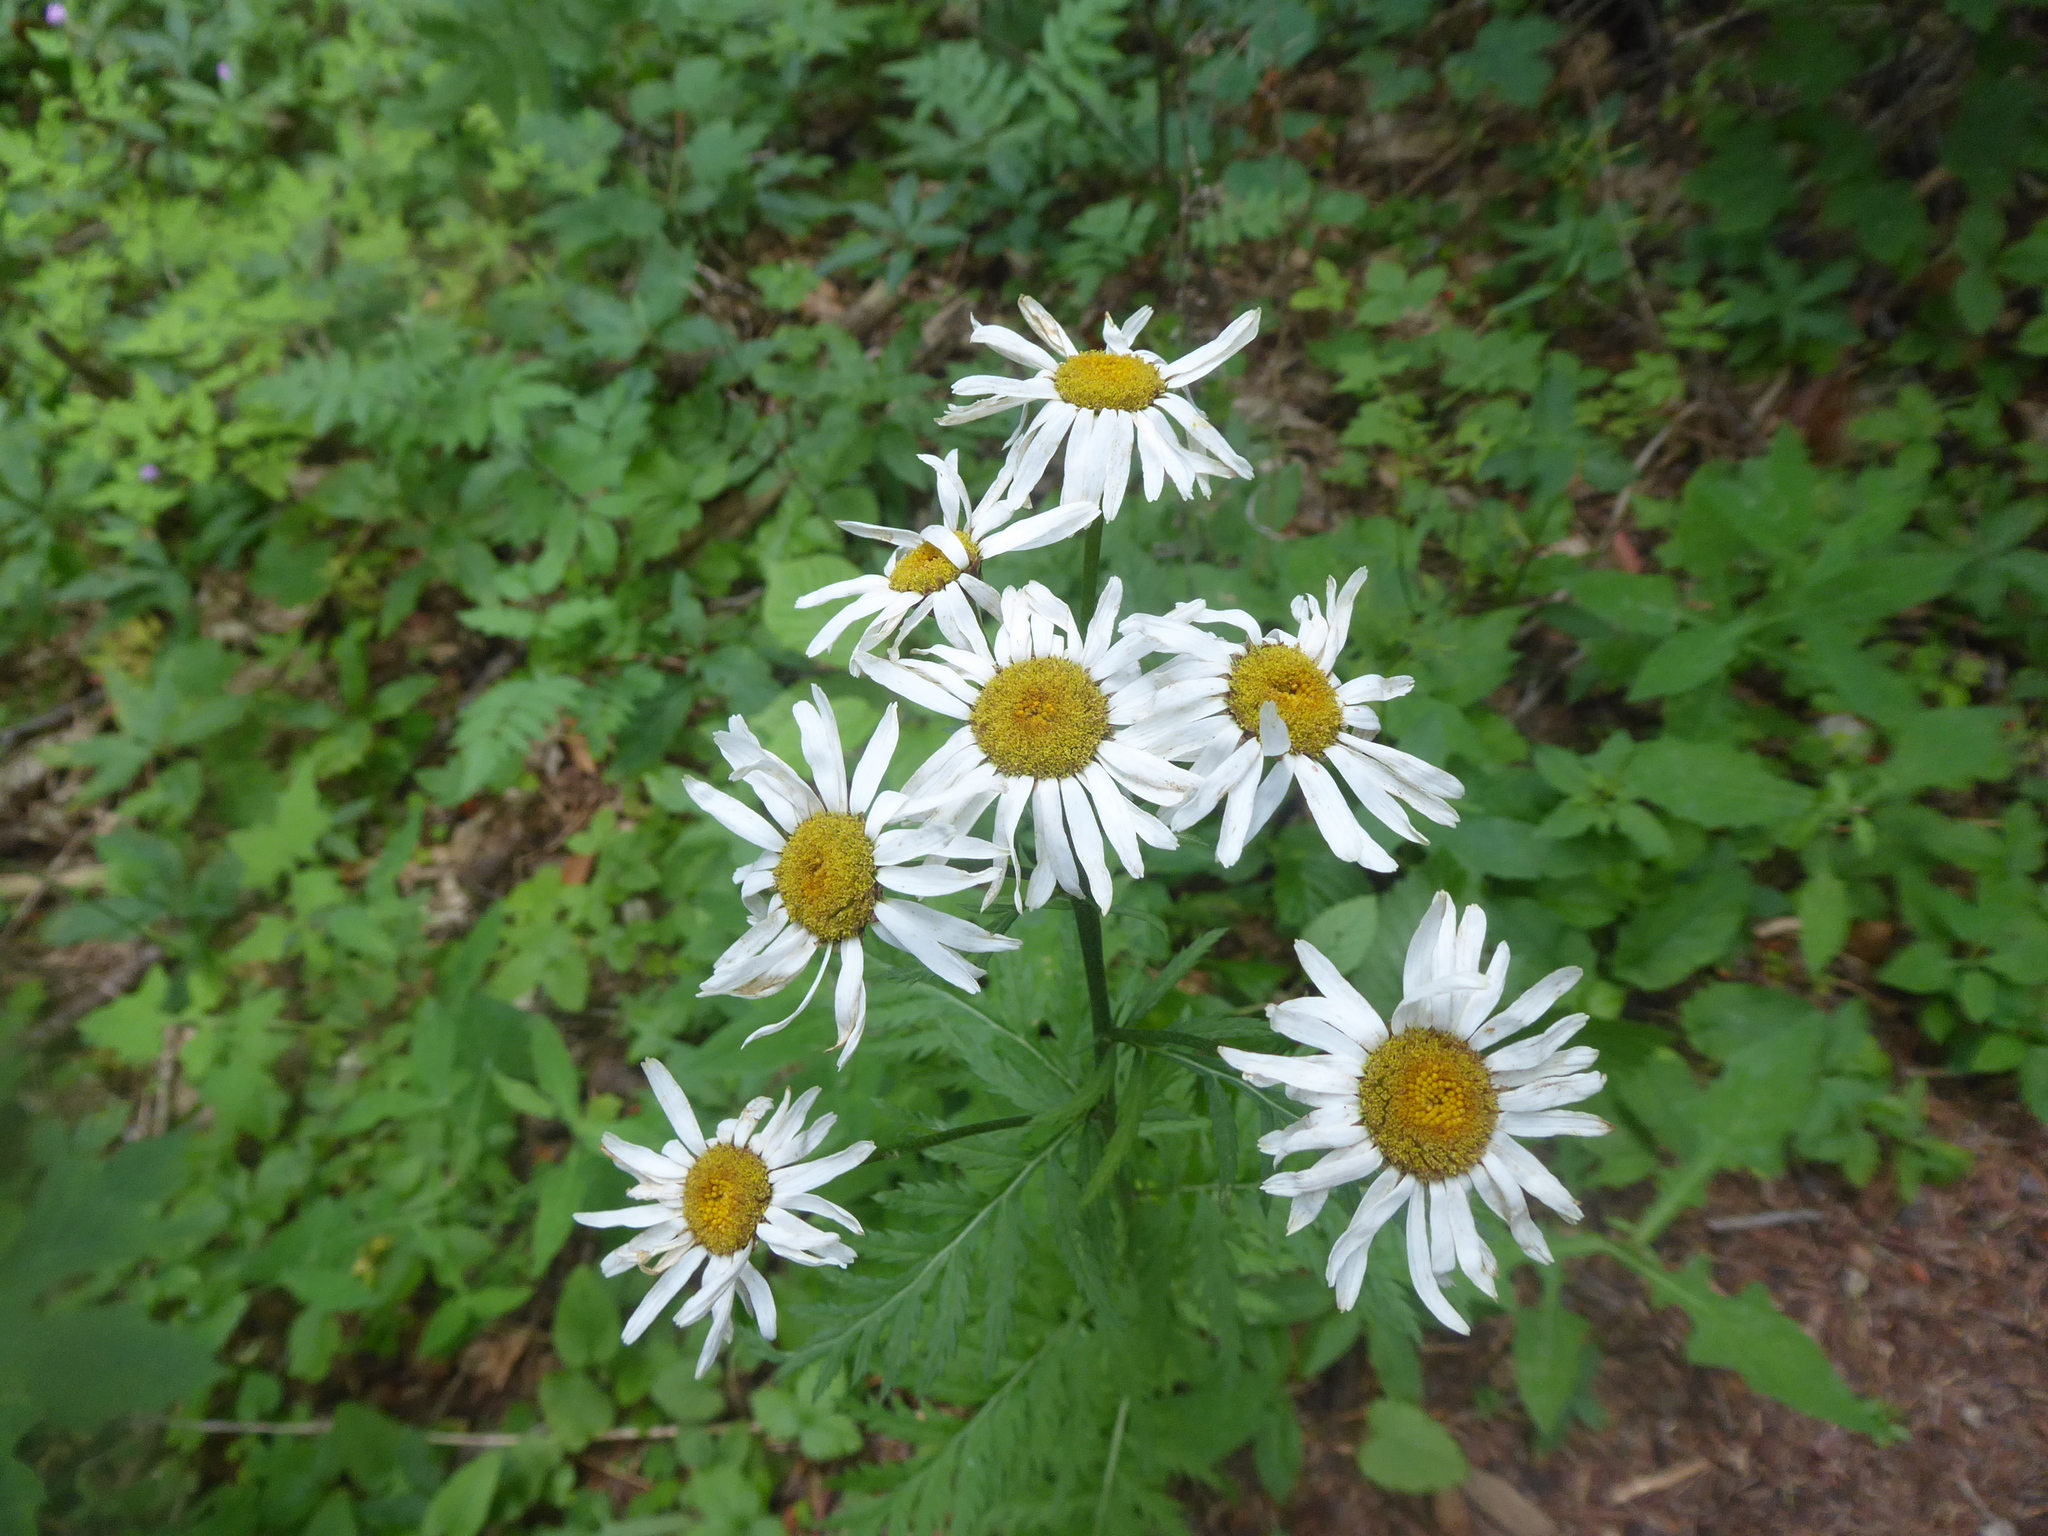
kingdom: Plantae
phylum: Tracheophyta
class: Magnoliopsida
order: Asterales
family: Asteraceae
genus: Tanacetum
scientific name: Tanacetum corymbosum
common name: Scentless feverfew
